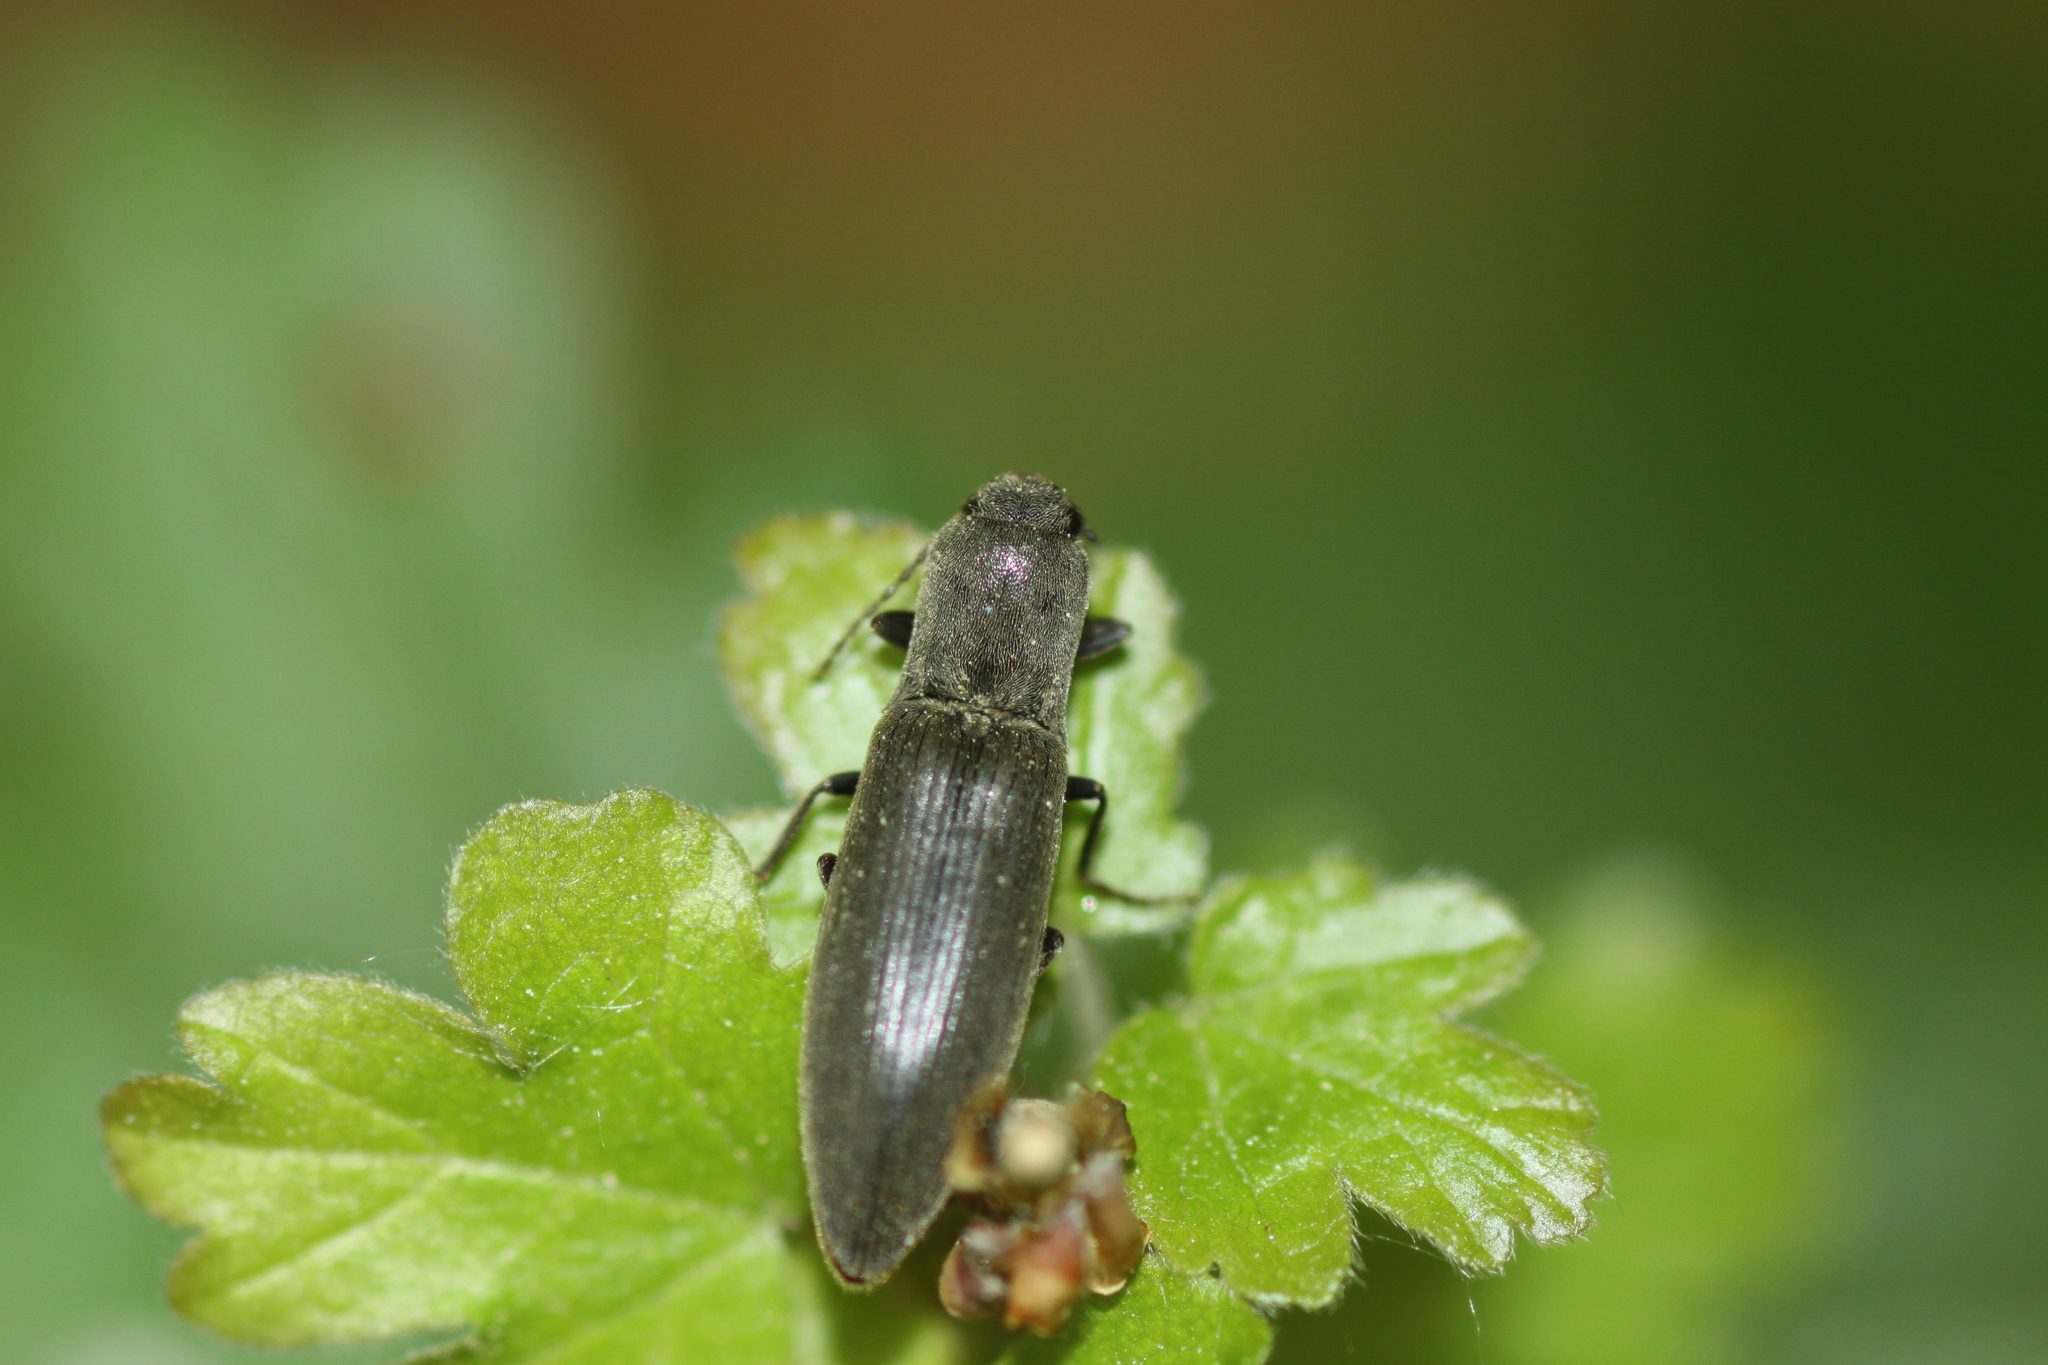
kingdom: Animalia
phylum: Arthropoda
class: Insecta
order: Coleoptera
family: Elateridae
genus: Agriotes
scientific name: Agriotes pilosellus
